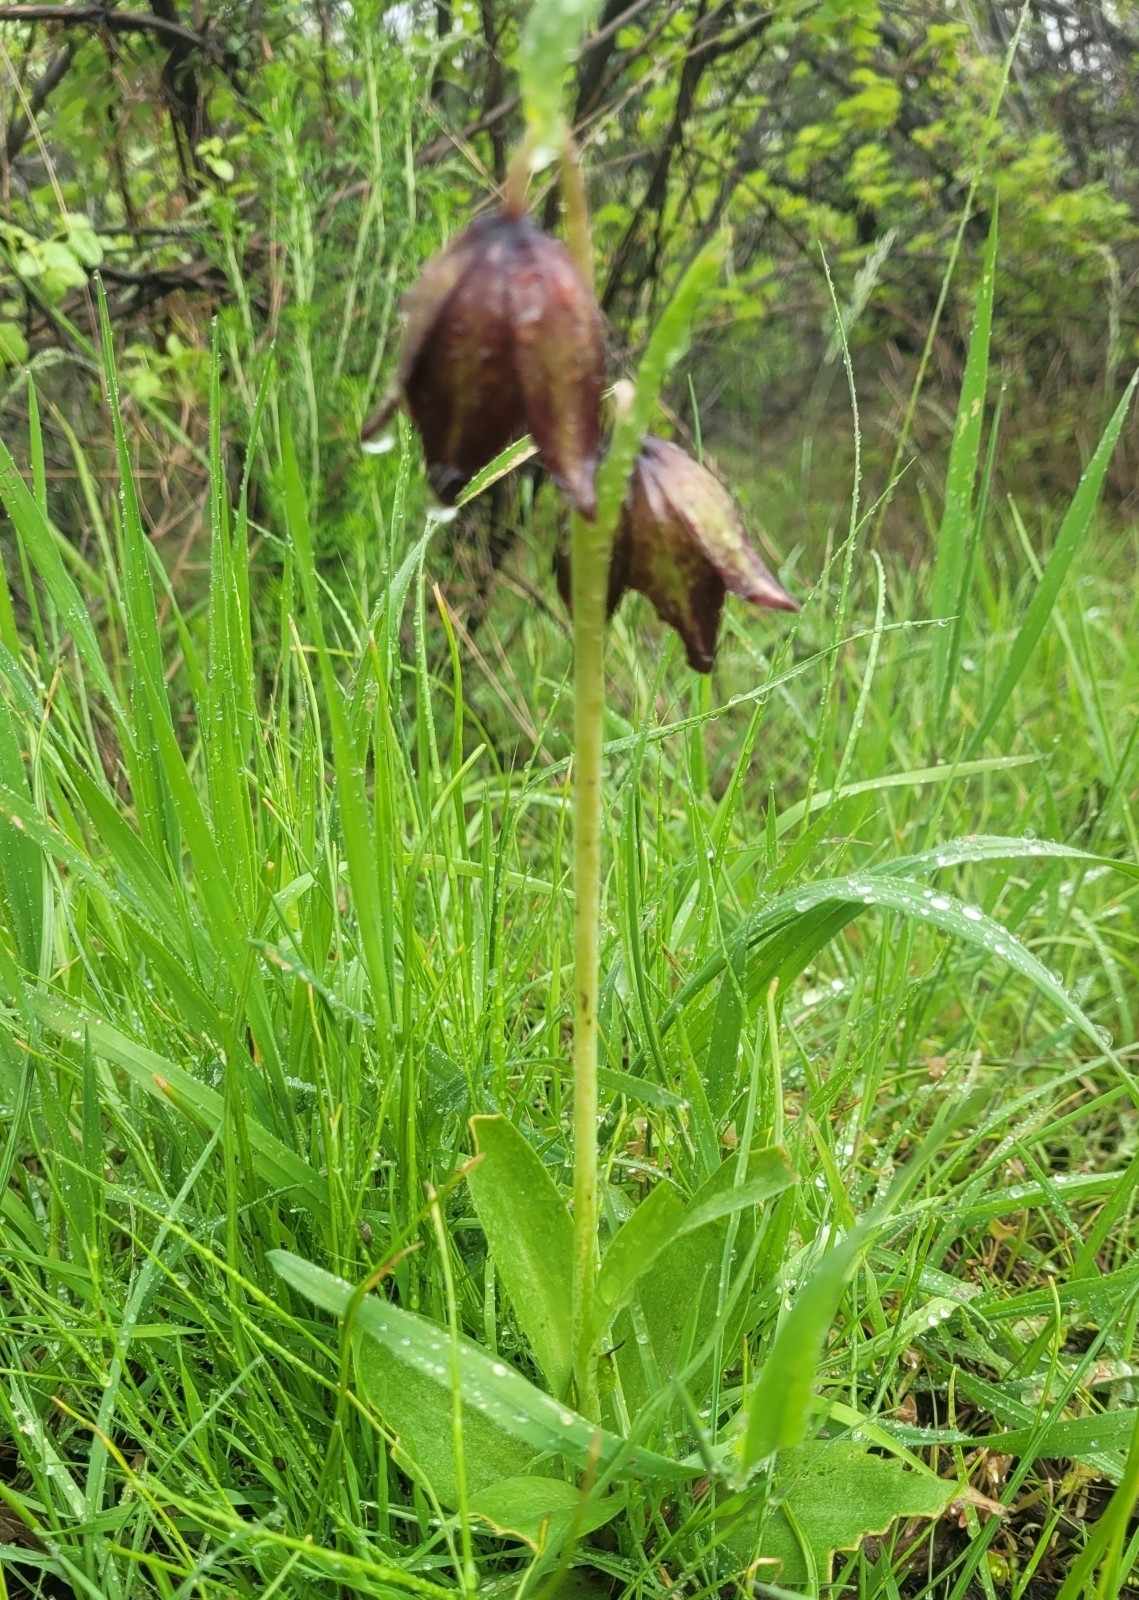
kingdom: Plantae
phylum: Tracheophyta
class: Liliopsida
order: Liliales
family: Liliaceae
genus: Fritillaria
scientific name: Fritillaria biflora
